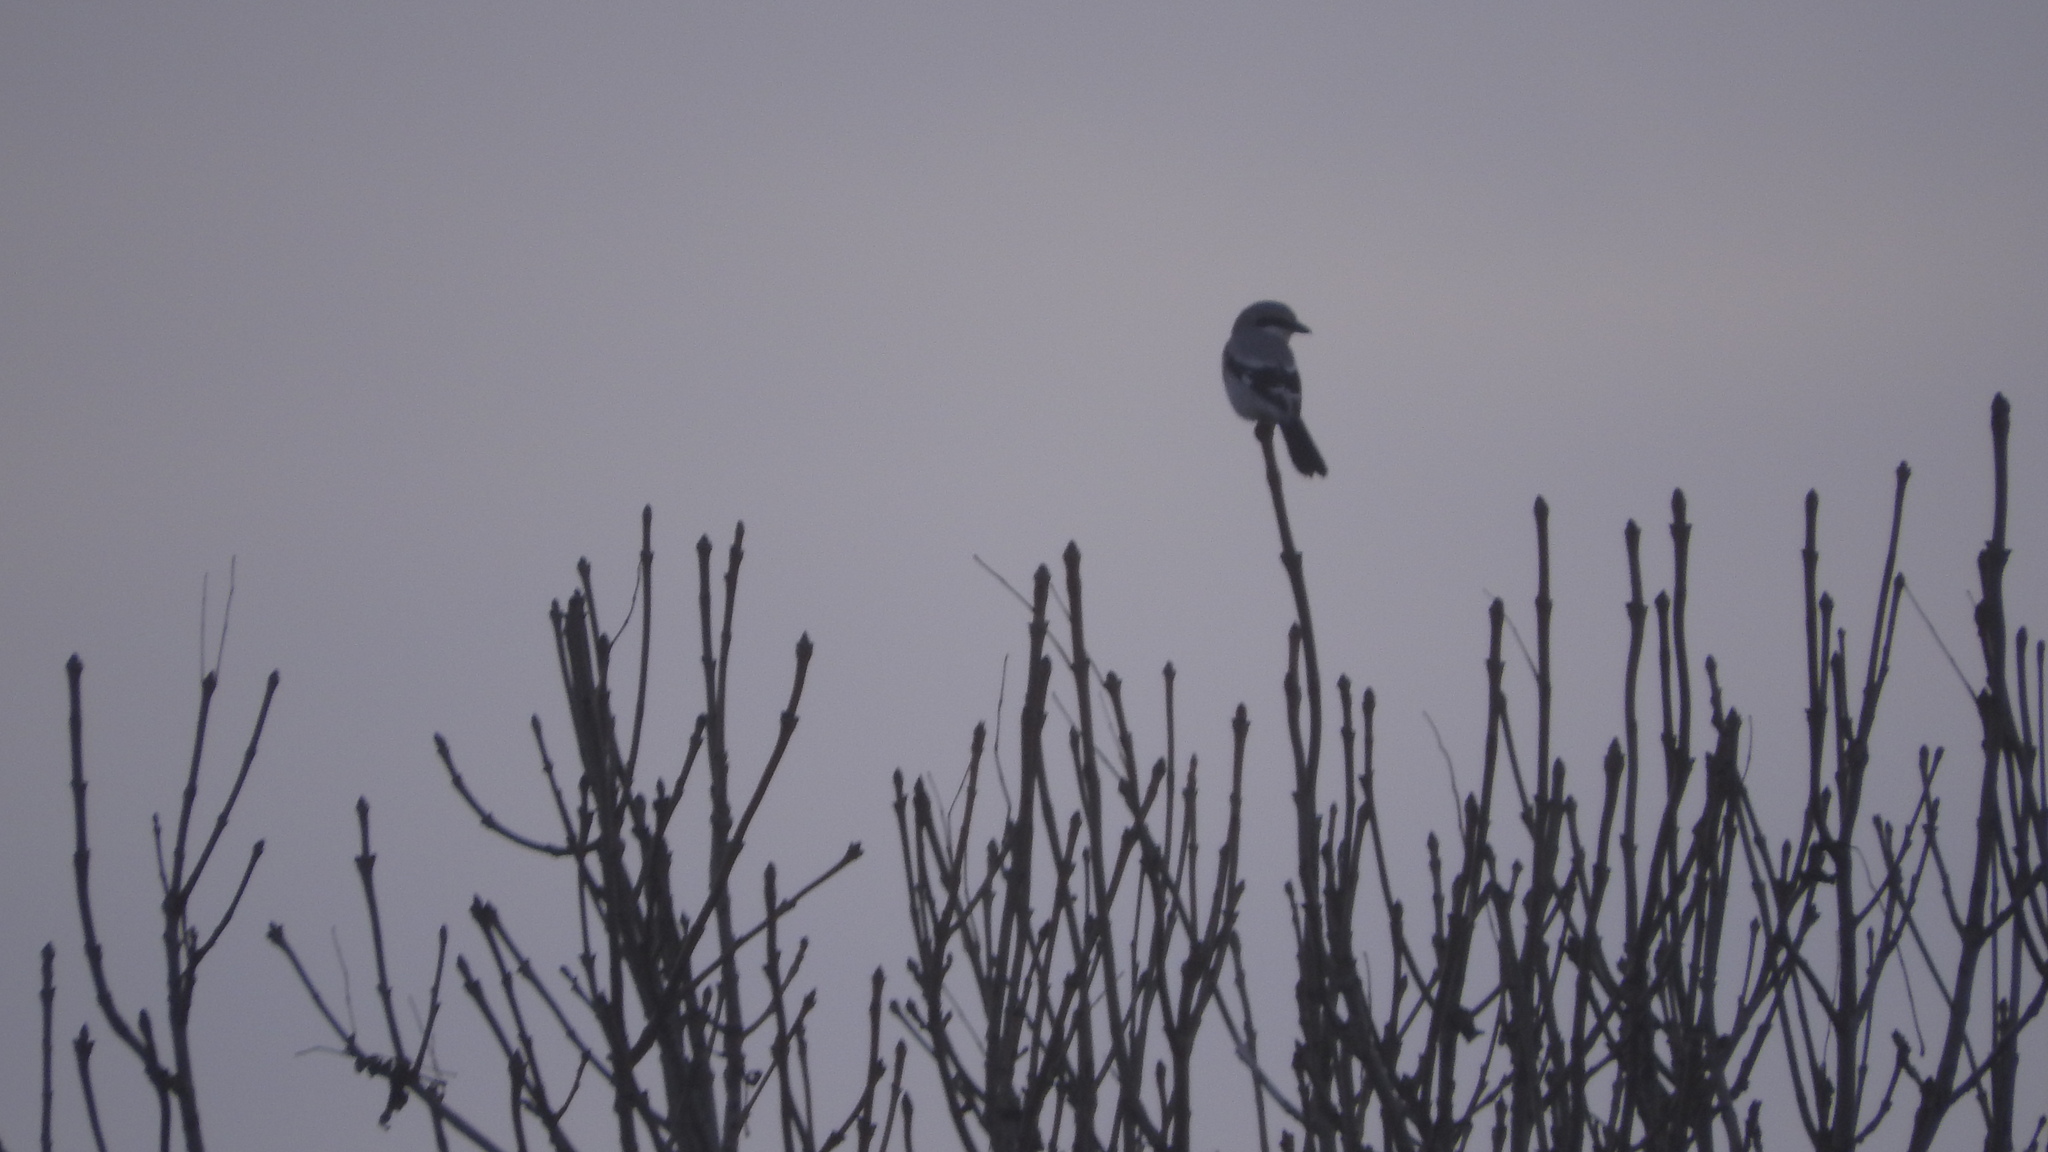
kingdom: Animalia
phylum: Chordata
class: Aves
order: Passeriformes
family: Laniidae
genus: Lanius
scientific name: Lanius excubitor
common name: Great grey shrike
